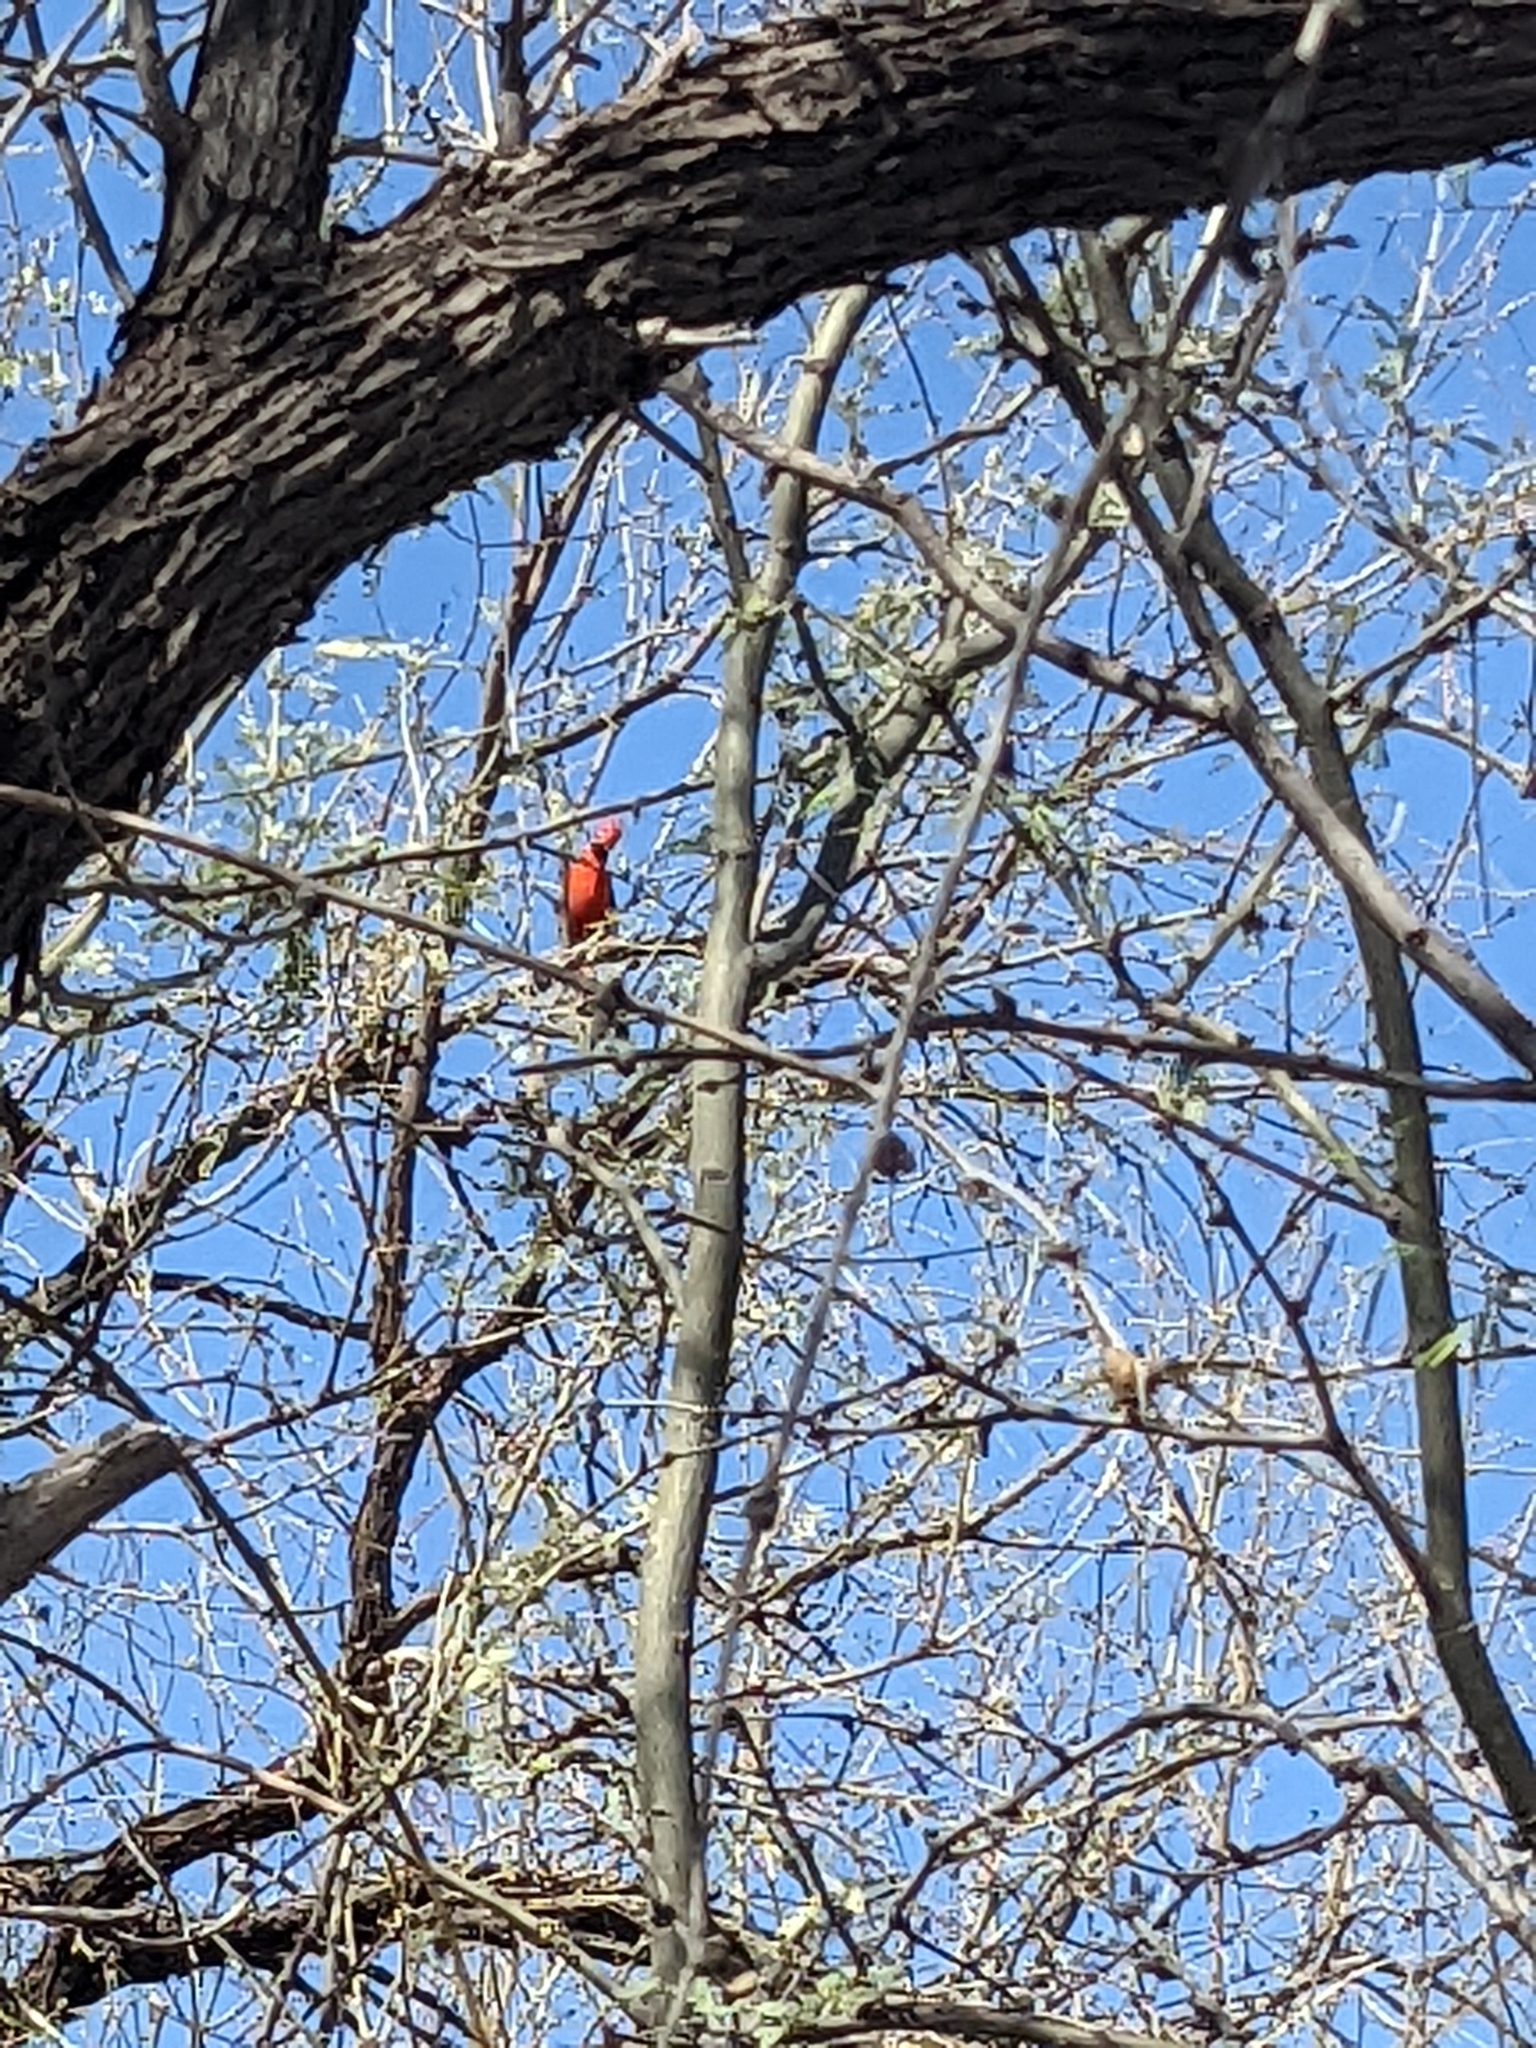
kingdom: Animalia
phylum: Chordata
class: Aves
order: Passeriformes
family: Cardinalidae
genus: Cardinalis
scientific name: Cardinalis cardinalis
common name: Northern cardinal
